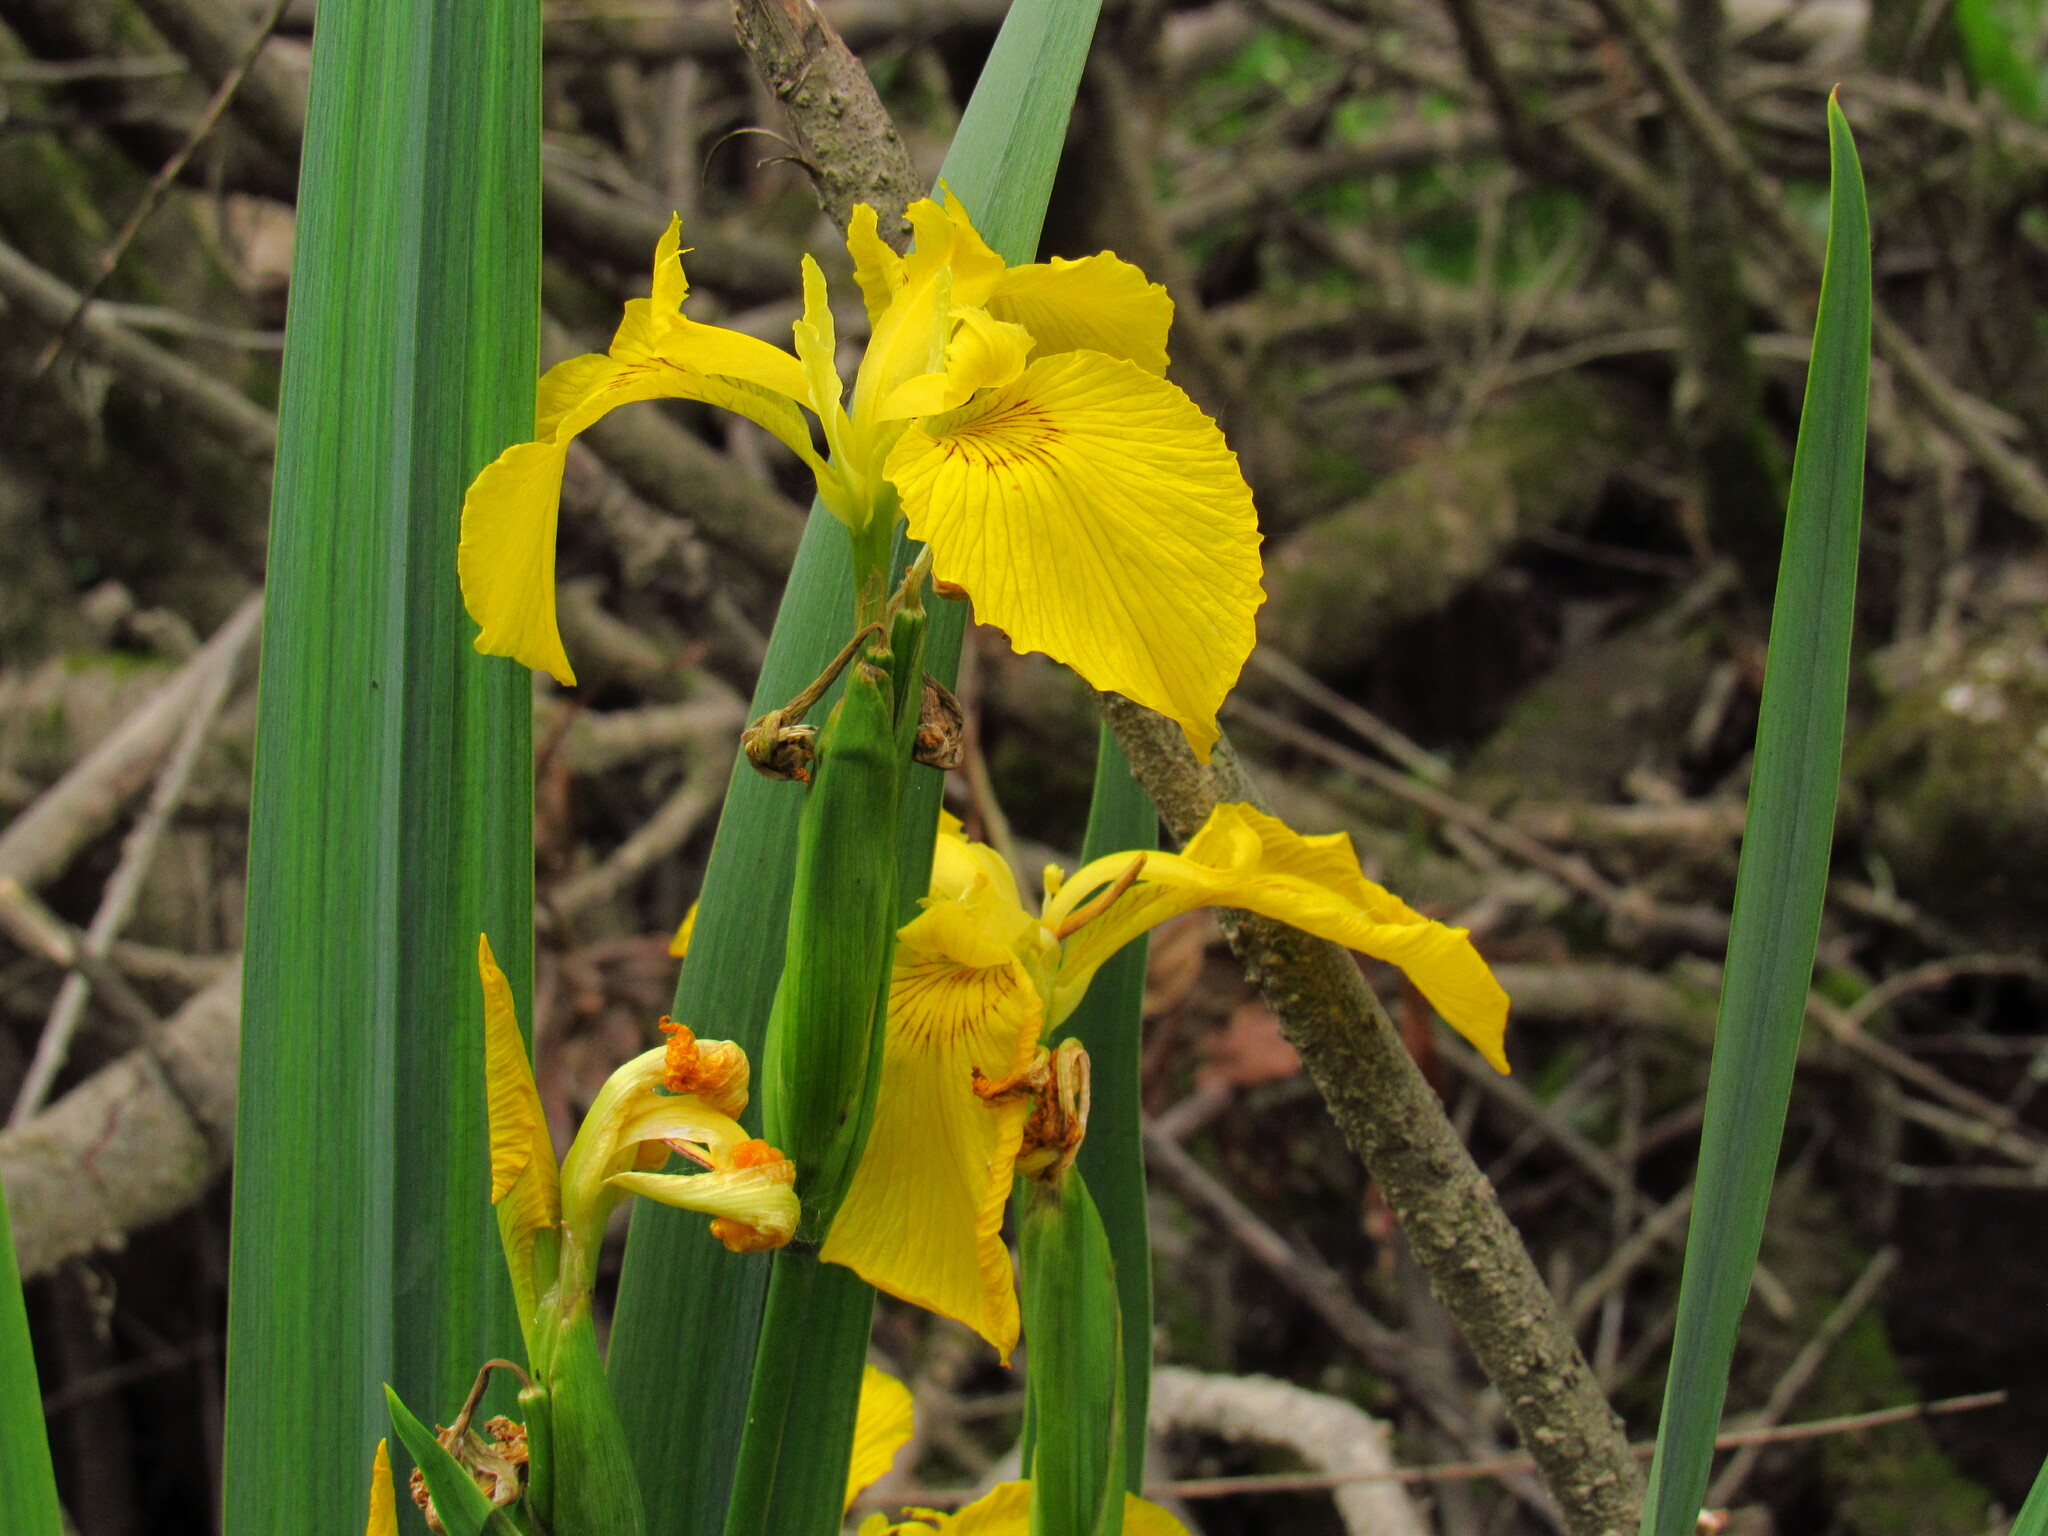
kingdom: Plantae
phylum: Tracheophyta
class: Liliopsida
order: Asparagales
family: Iridaceae
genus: Iris
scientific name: Iris pseudacorus
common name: Yellow flag
